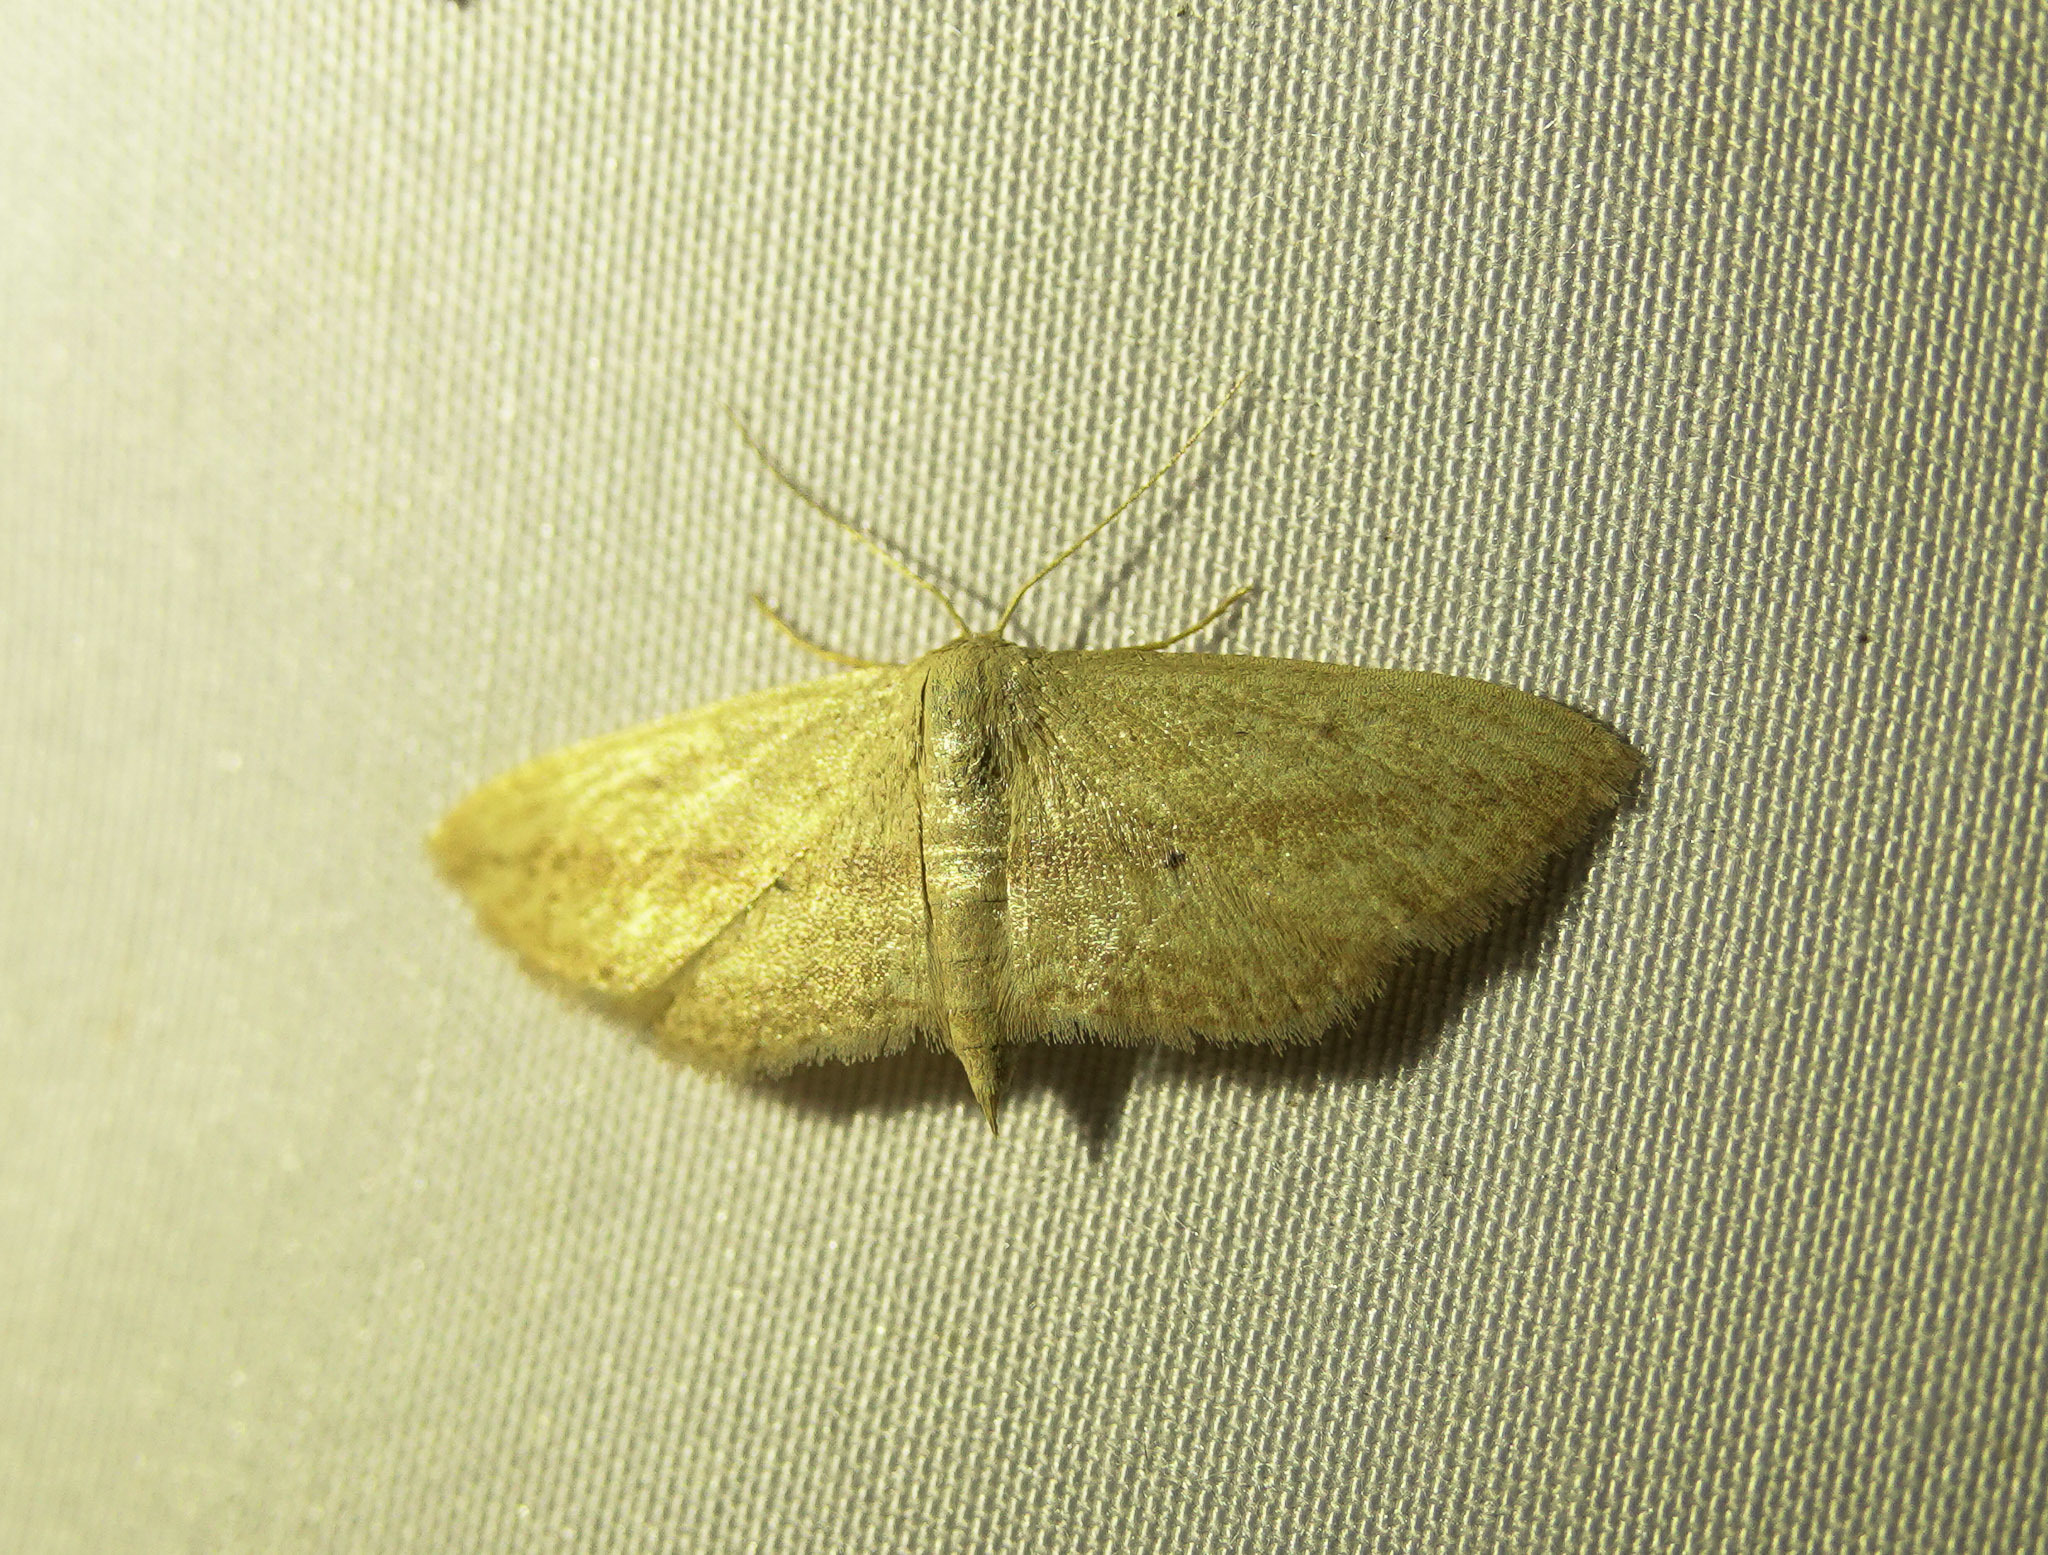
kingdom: Animalia
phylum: Arthropoda
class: Insecta
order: Lepidoptera
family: Geometridae
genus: Scopula
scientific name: Scopula emissaria
